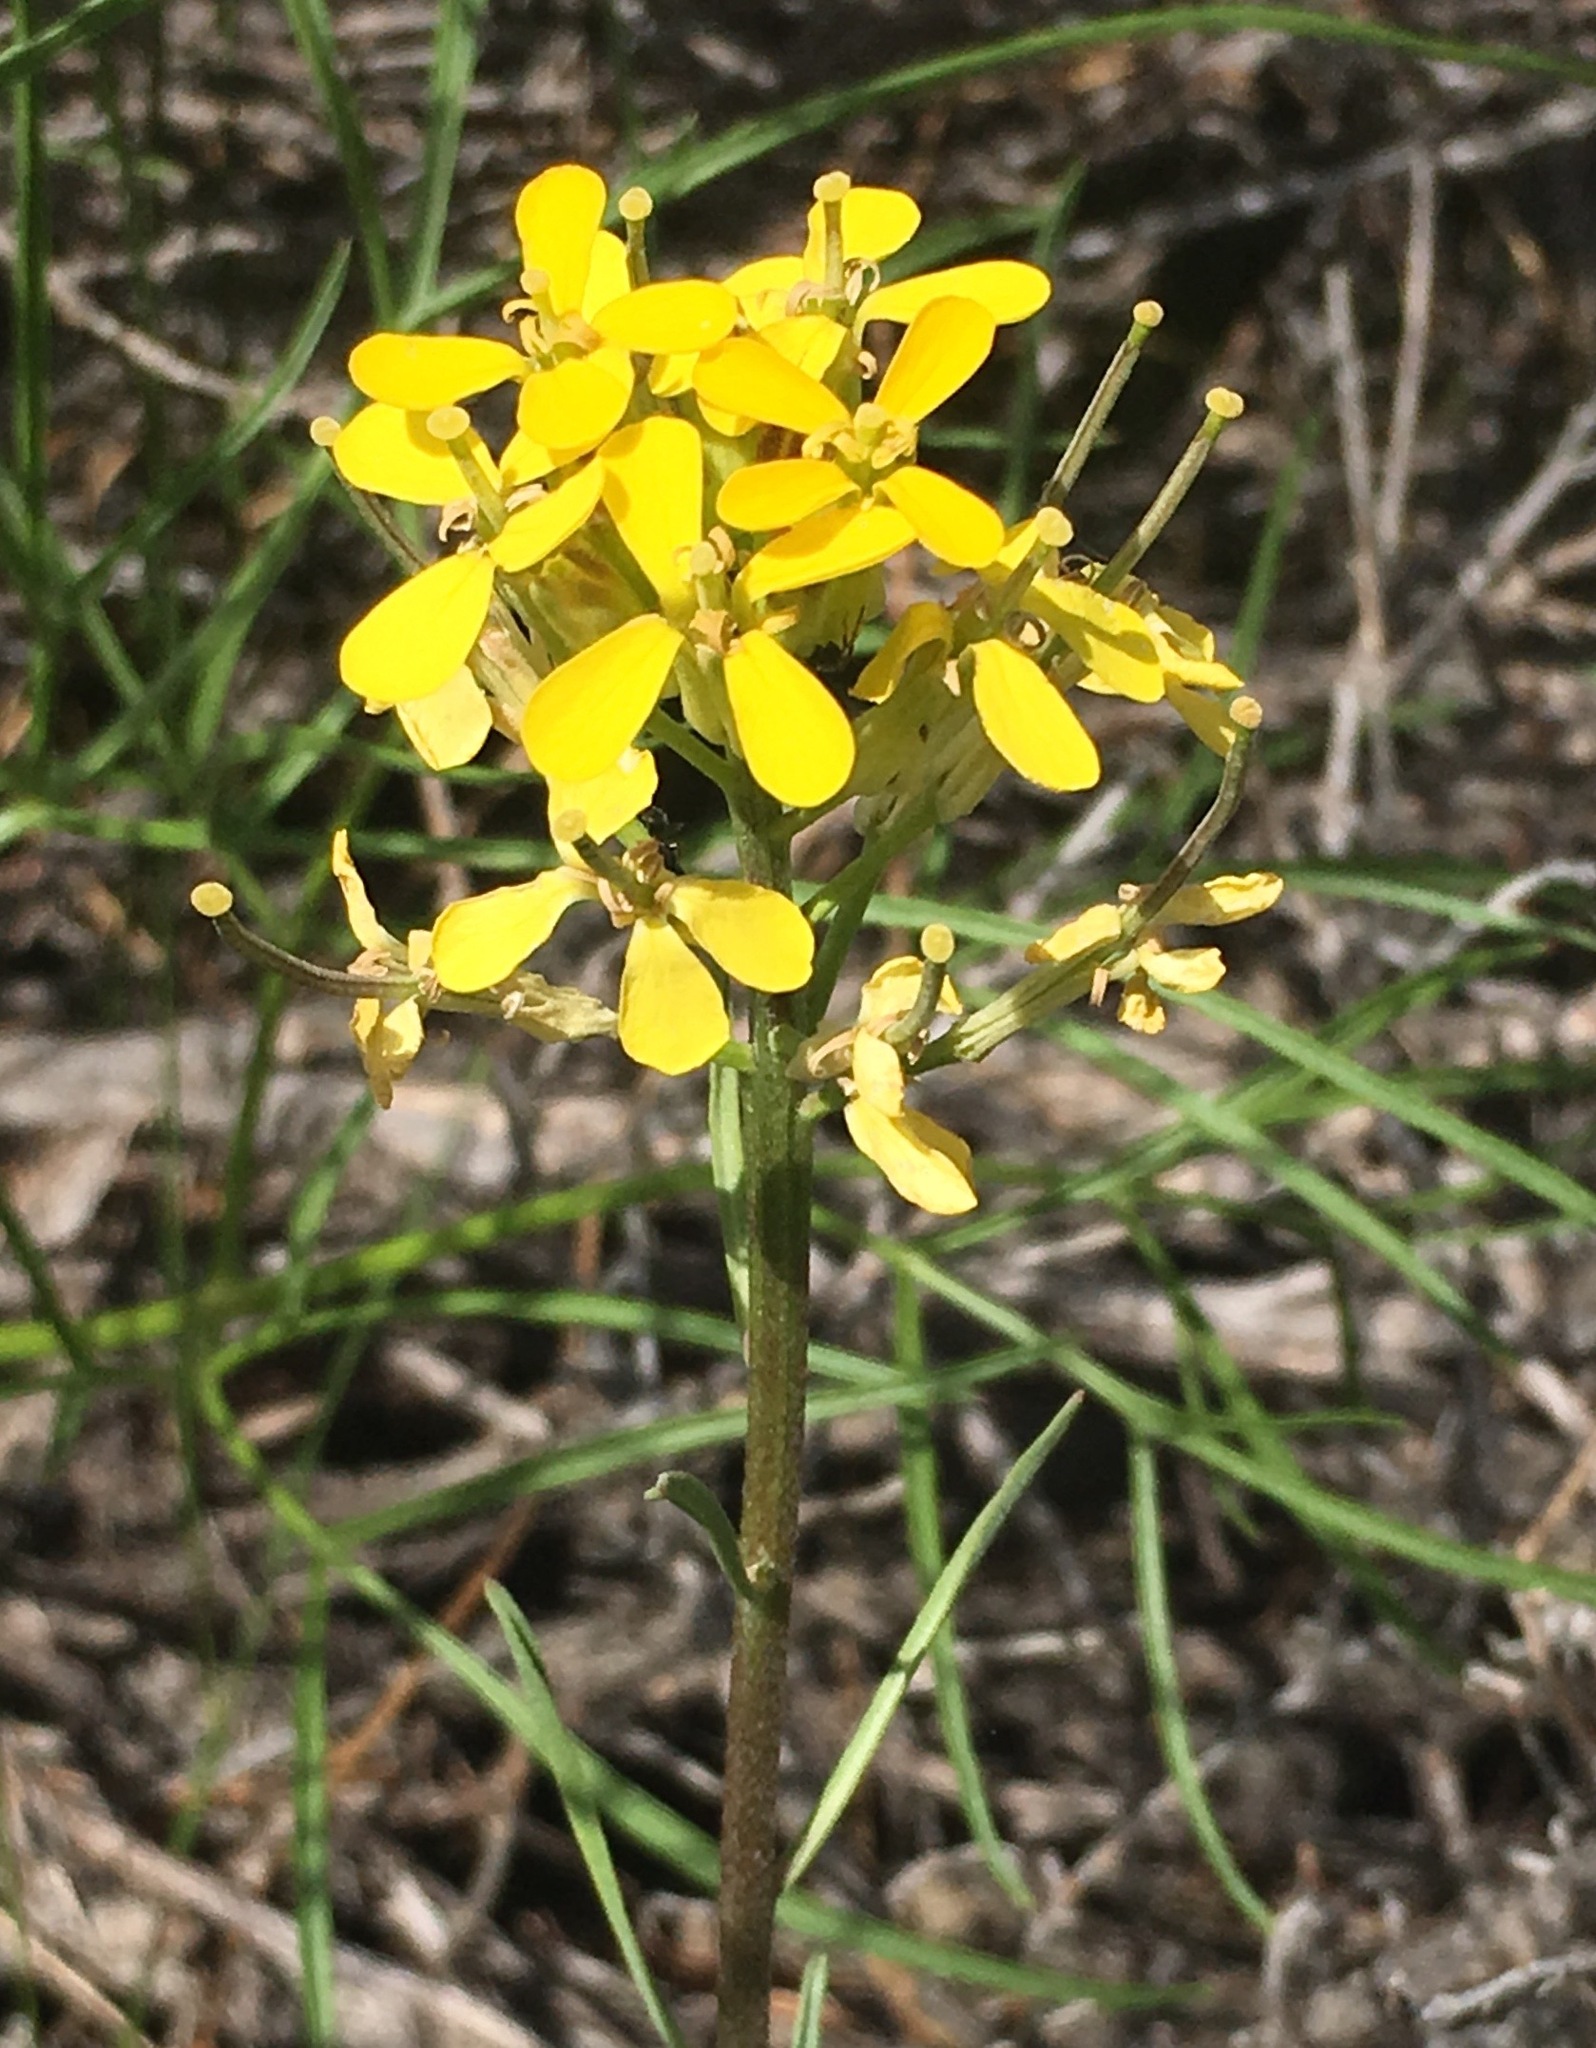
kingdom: Plantae
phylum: Tracheophyta
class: Magnoliopsida
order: Brassicales
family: Brassicaceae
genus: Erysimum
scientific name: Erysimum capitatum
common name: Western wallflower
